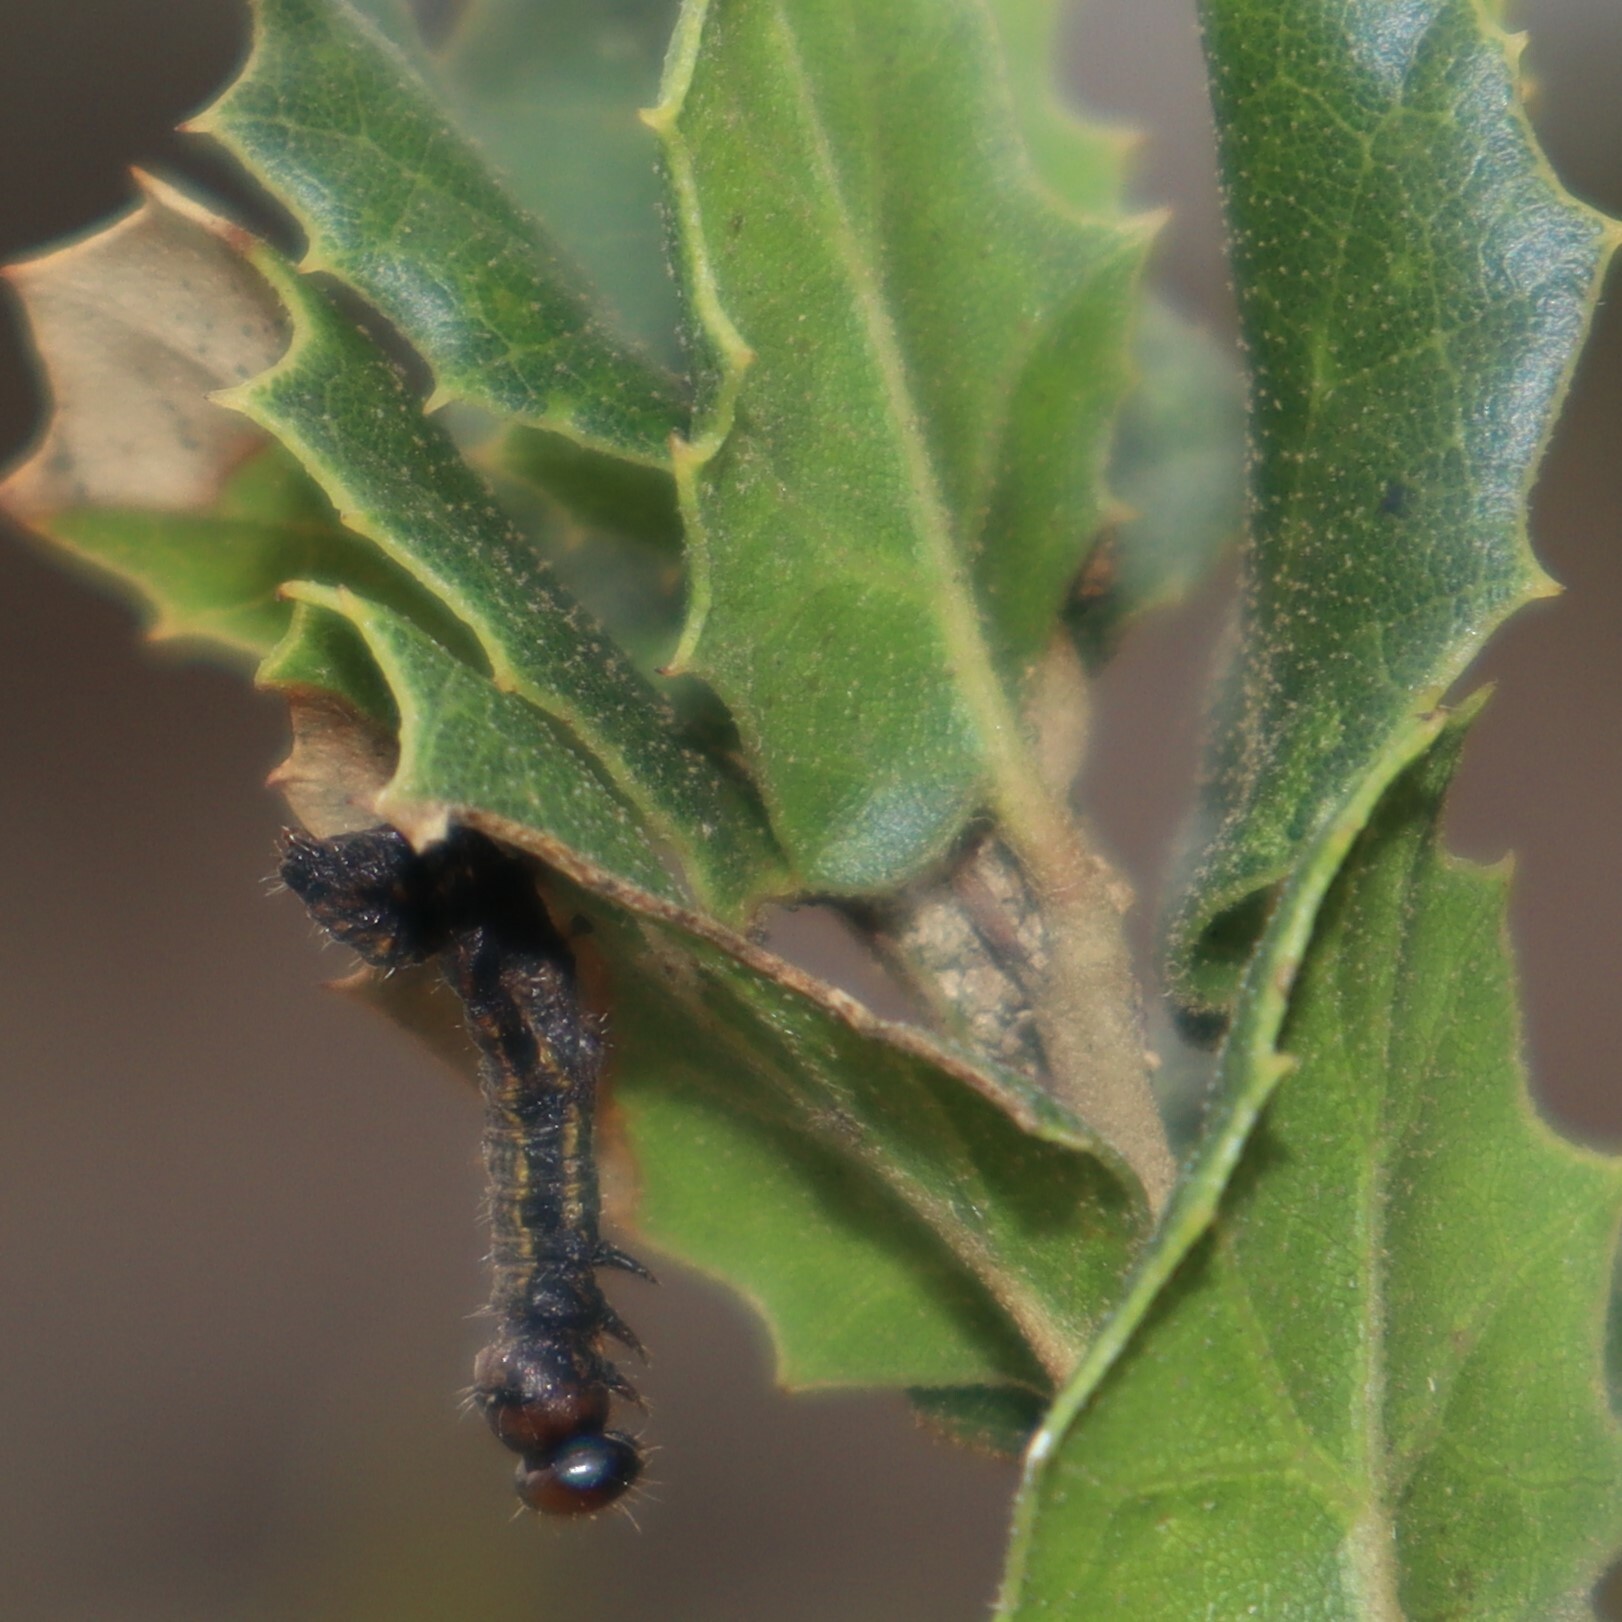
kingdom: Animalia
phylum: Arthropoda
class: Insecta
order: Lepidoptera
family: Notodontidae
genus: Phryganidia
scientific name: Phryganidia californica
